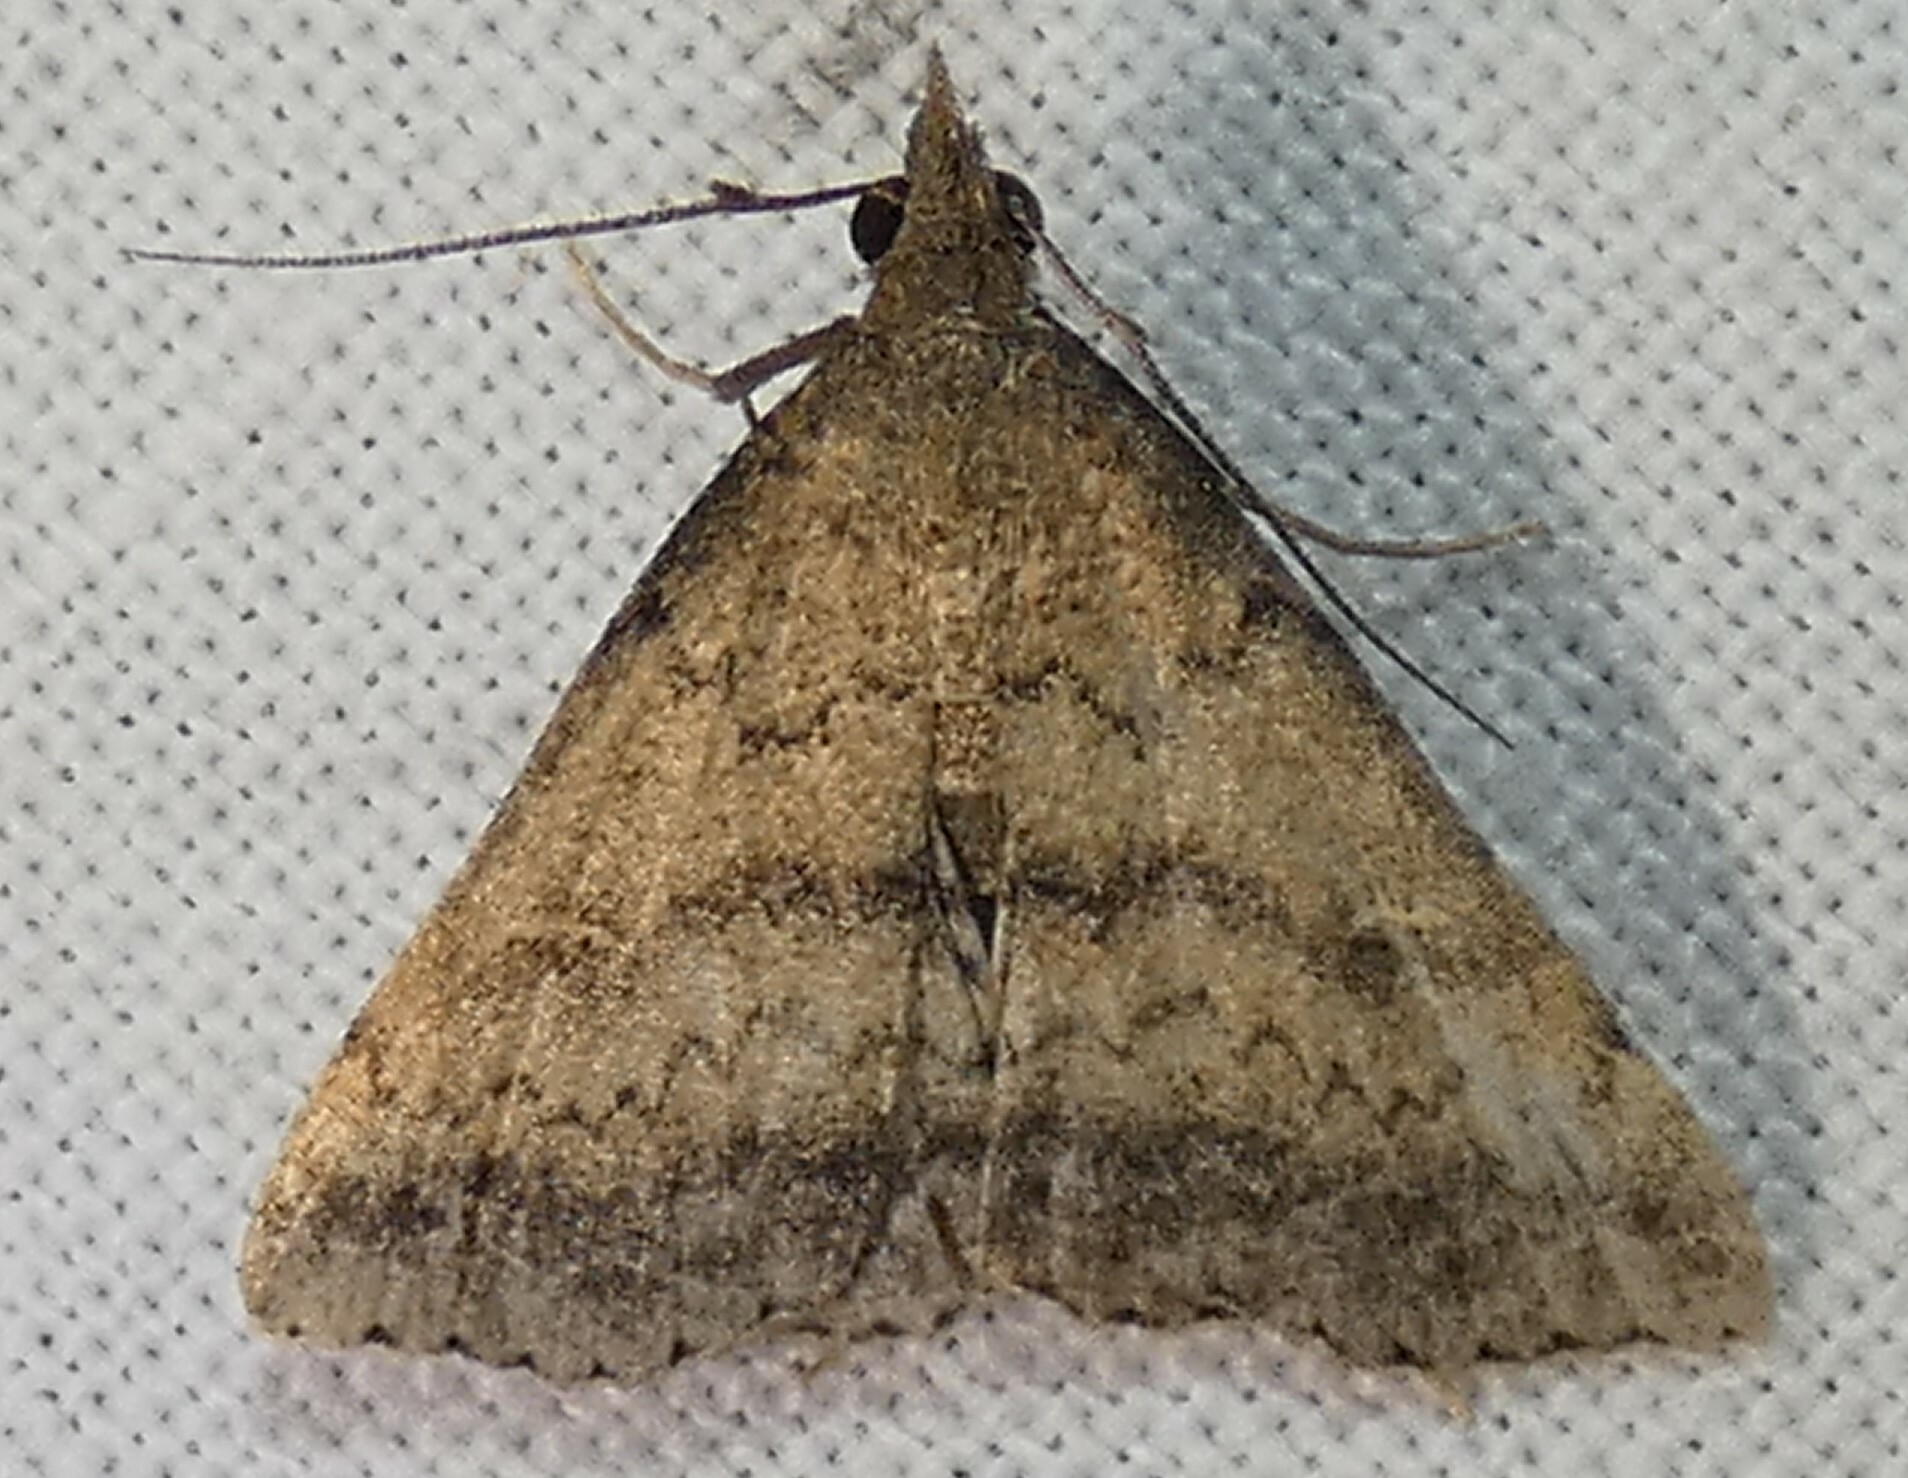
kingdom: Animalia
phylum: Arthropoda
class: Insecta
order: Lepidoptera
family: Erebidae
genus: Tetanolita
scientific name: Tetanolita floridana
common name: Florida tetanolita moth
